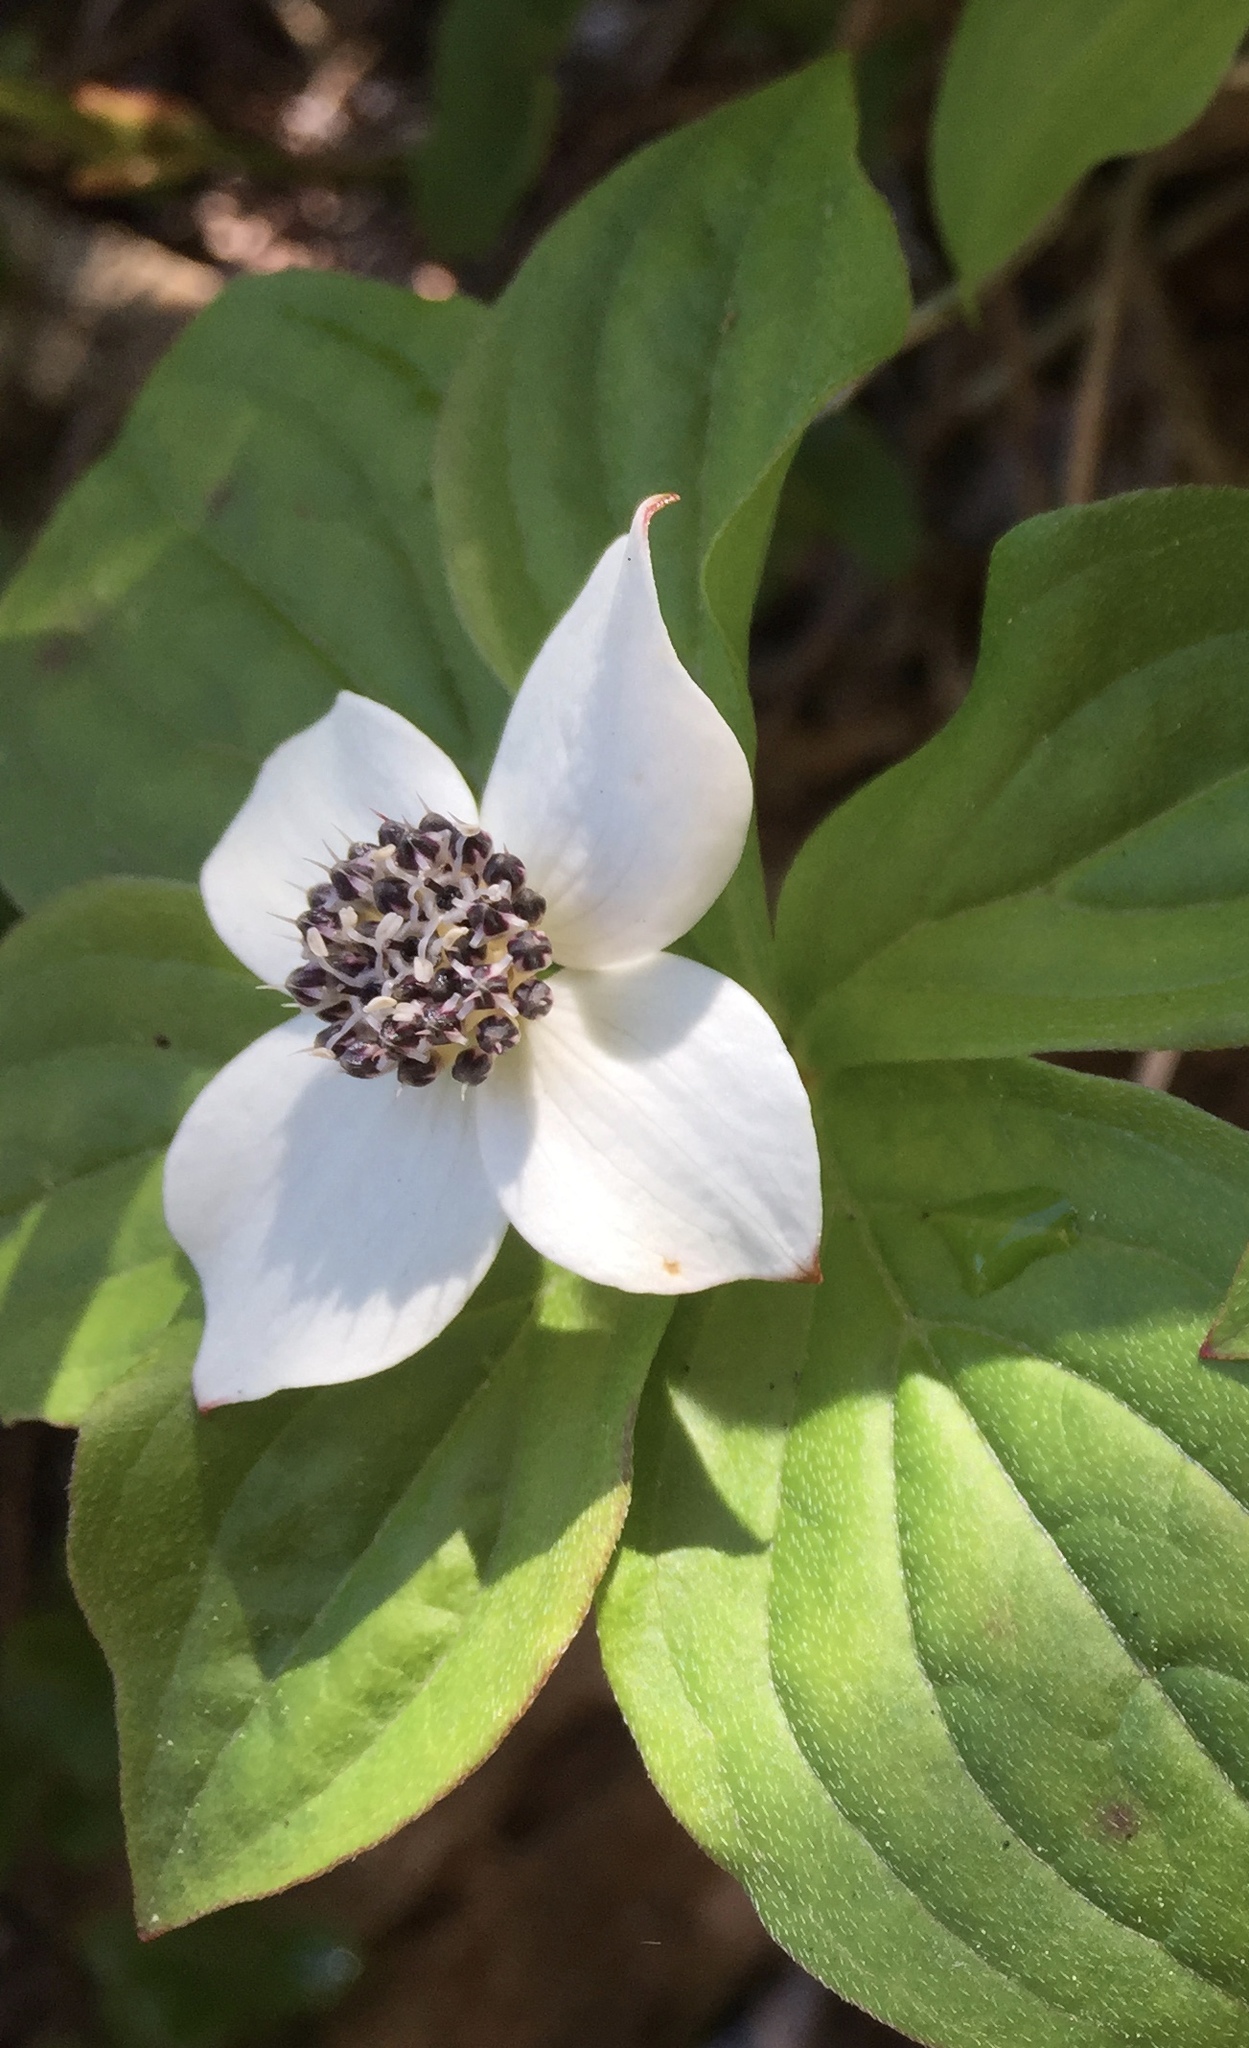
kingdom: Plantae
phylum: Tracheophyta
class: Magnoliopsida
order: Cornales
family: Cornaceae
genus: Cornus
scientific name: Cornus unalaschkensis
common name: Alaska bunchberry
